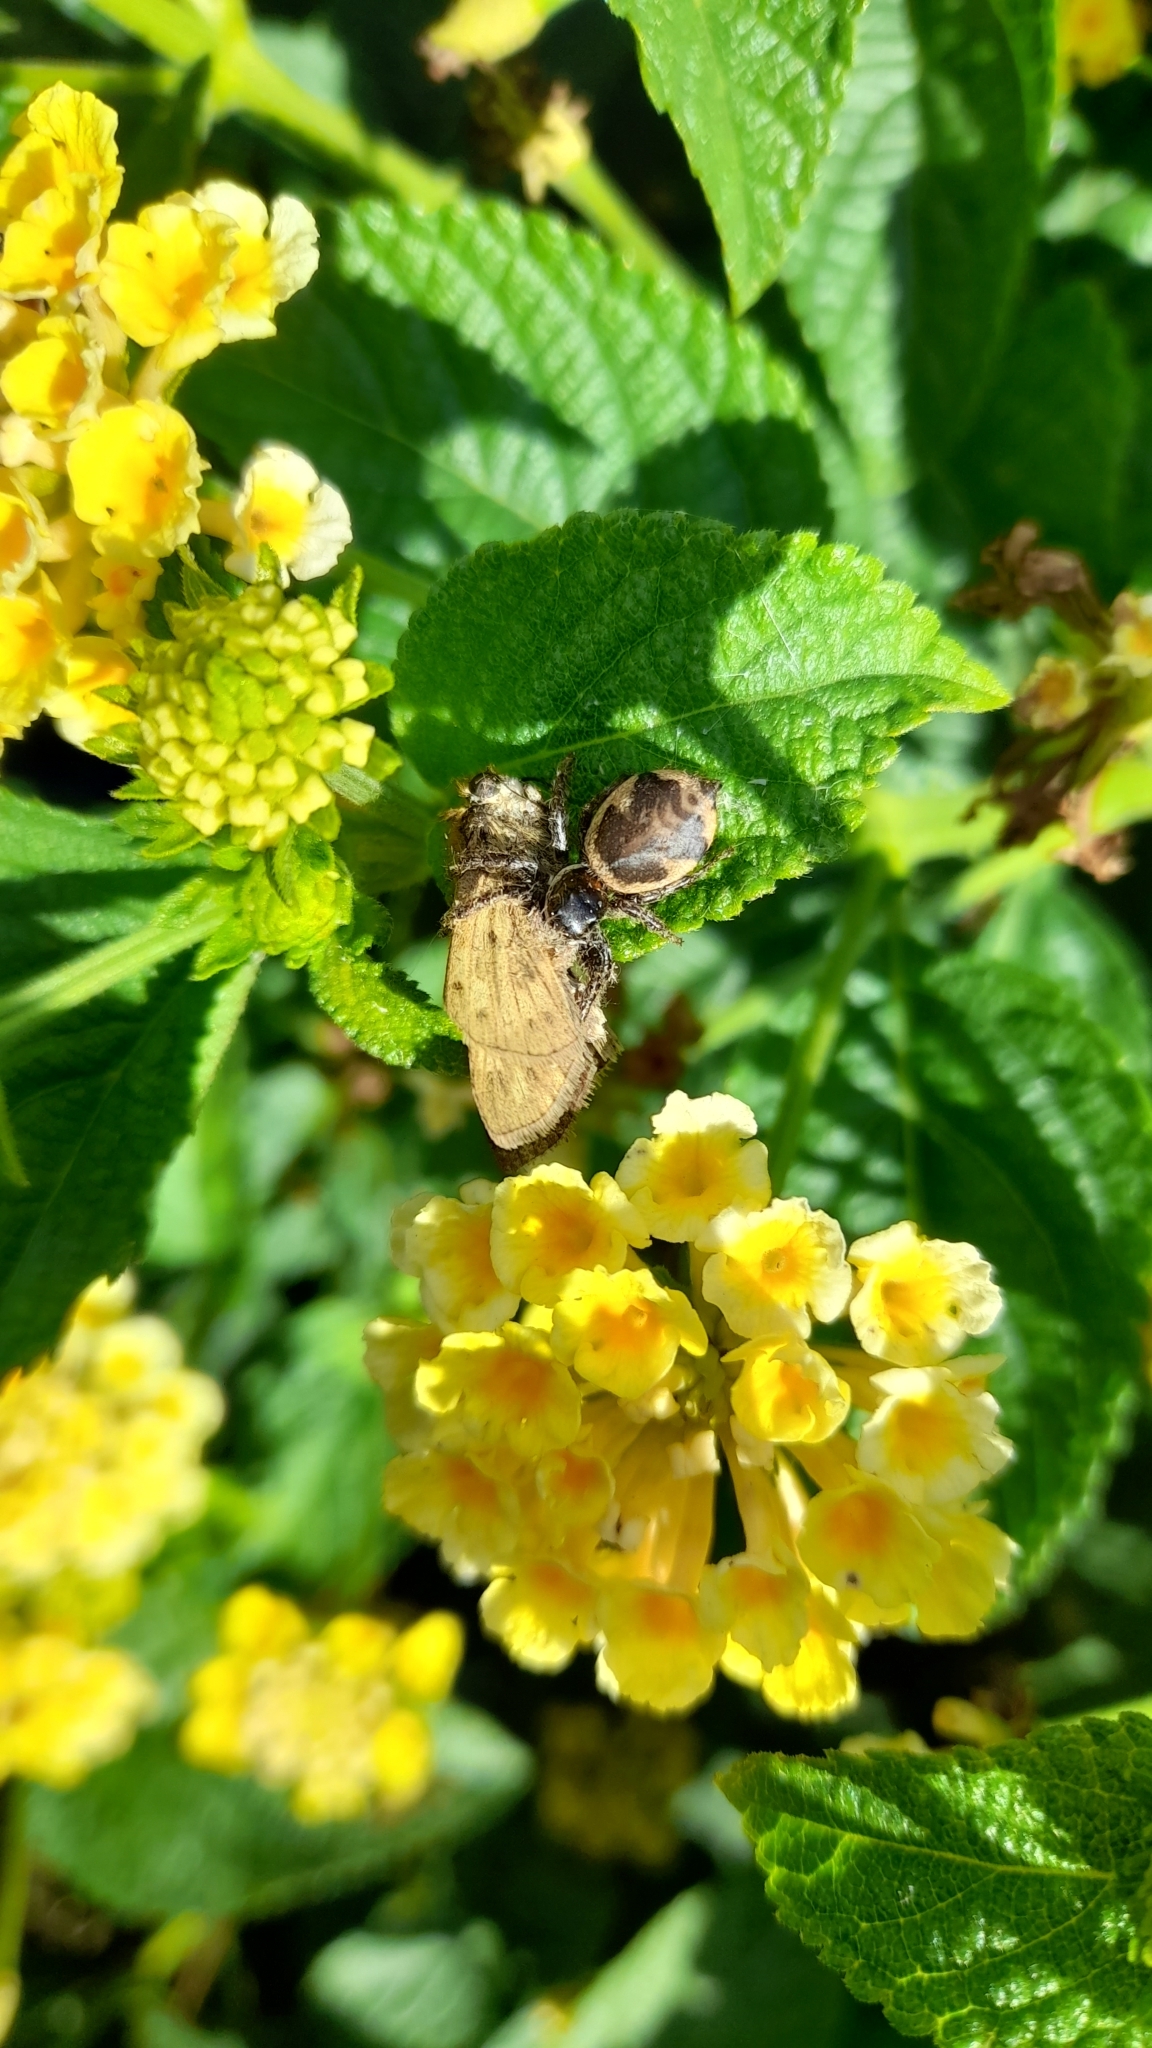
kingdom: Animalia
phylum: Arthropoda
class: Arachnida
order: Araneae
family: Salticidae
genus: Phiale
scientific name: Phiale roburifoliata
